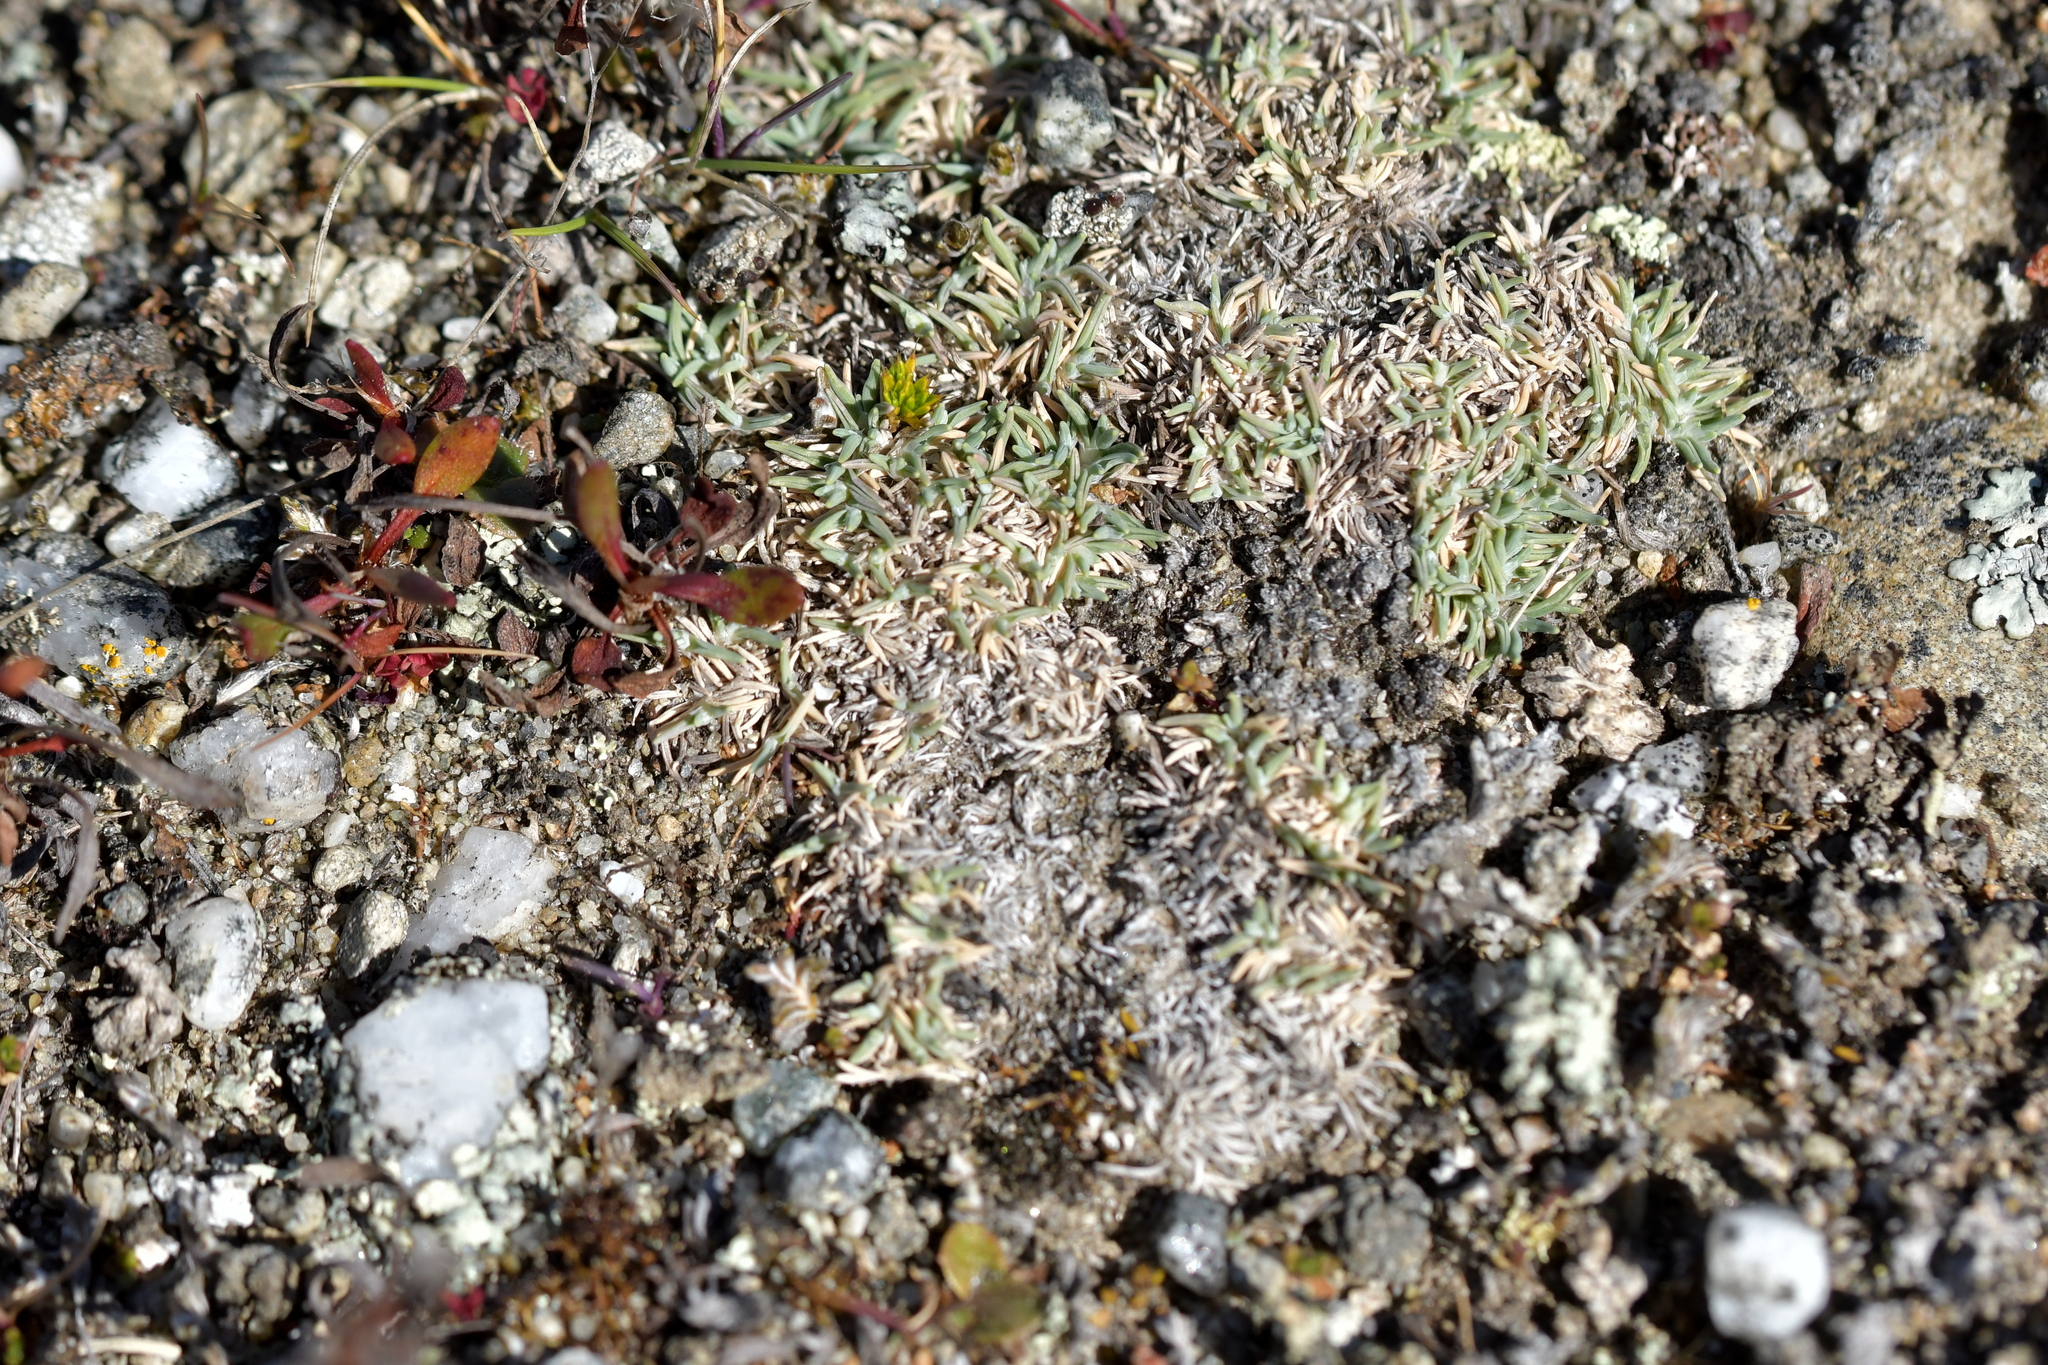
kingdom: Plantae
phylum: Tracheophyta
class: Liliopsida
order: Poales
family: Poaceae
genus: Agrostis
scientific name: Agrostis muscosa
